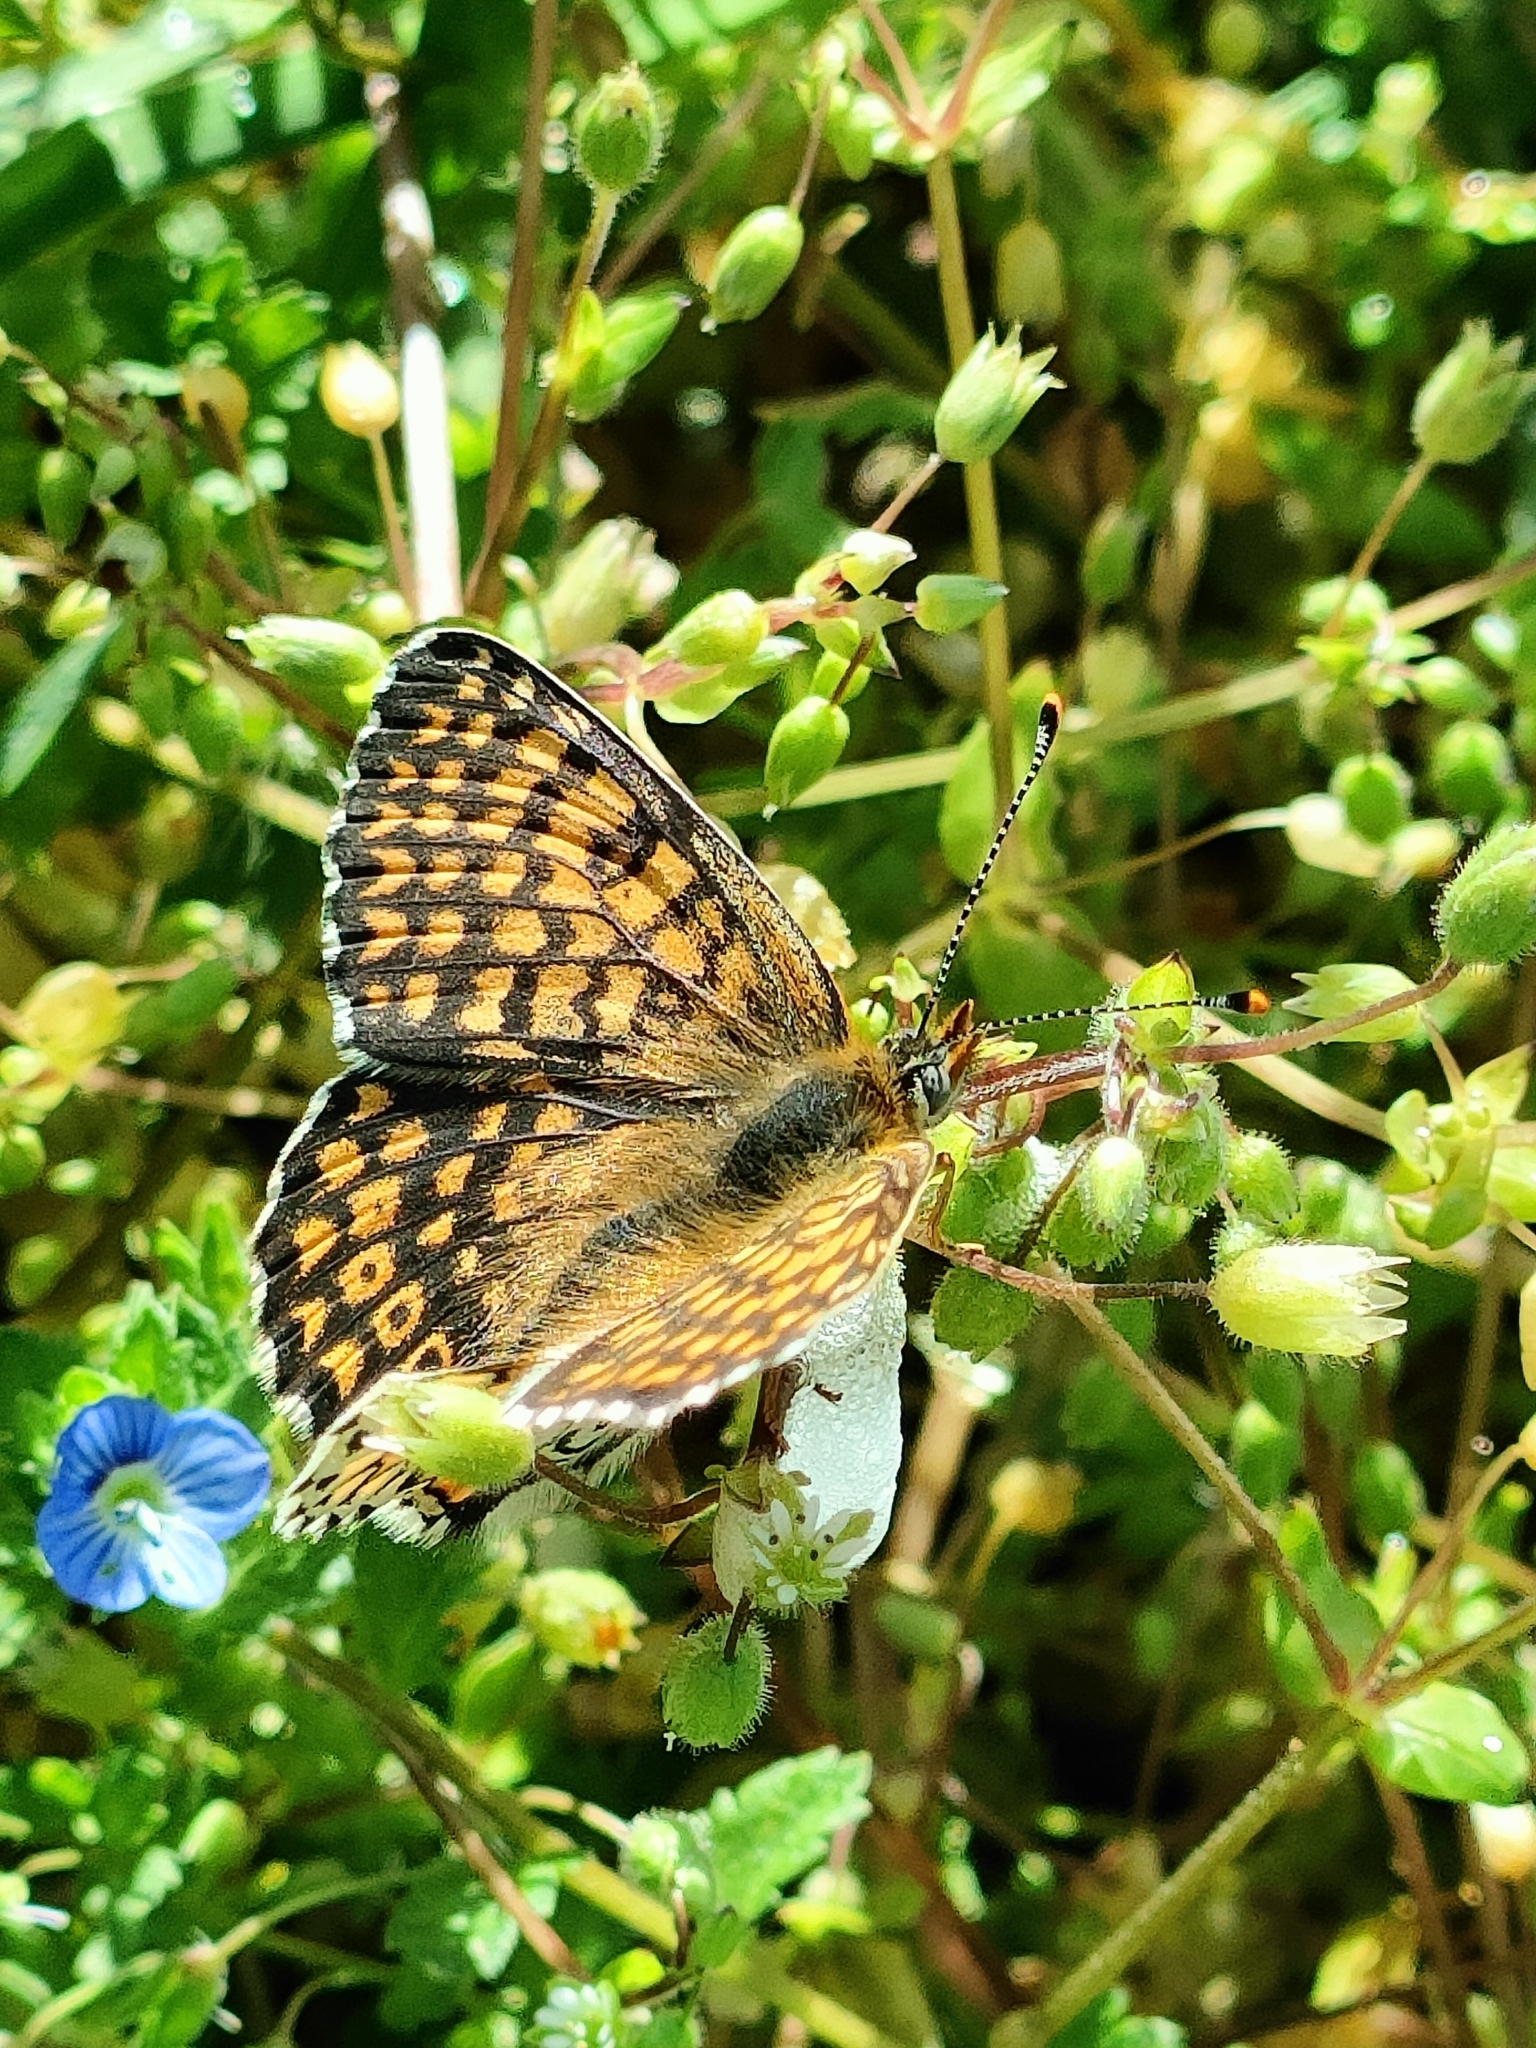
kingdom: Animalia
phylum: Arthropoda
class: Insecta
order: Lepidoptera
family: Nymphalidae
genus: Melitaea
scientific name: Melitaea cinxia
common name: Glanville fritillary
